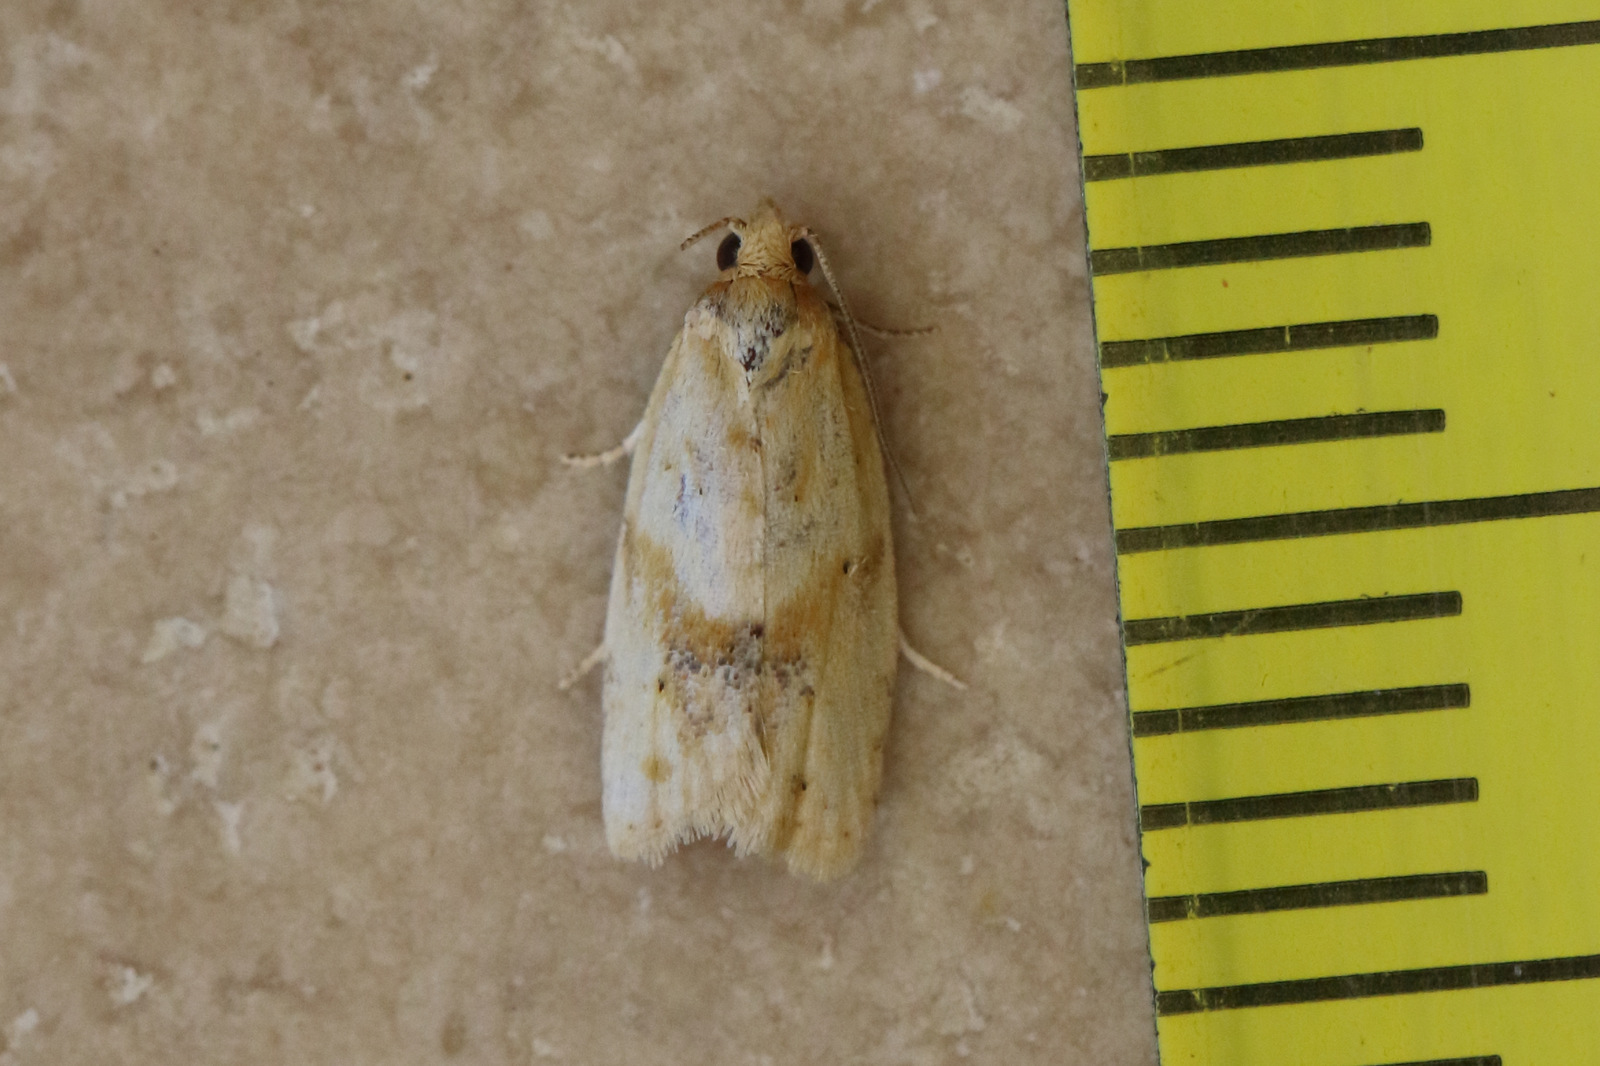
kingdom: Animalia
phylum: Arthropoda
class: Insecta
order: Lepidoptera
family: Tortricidae
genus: Clepsis
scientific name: Clepsis
